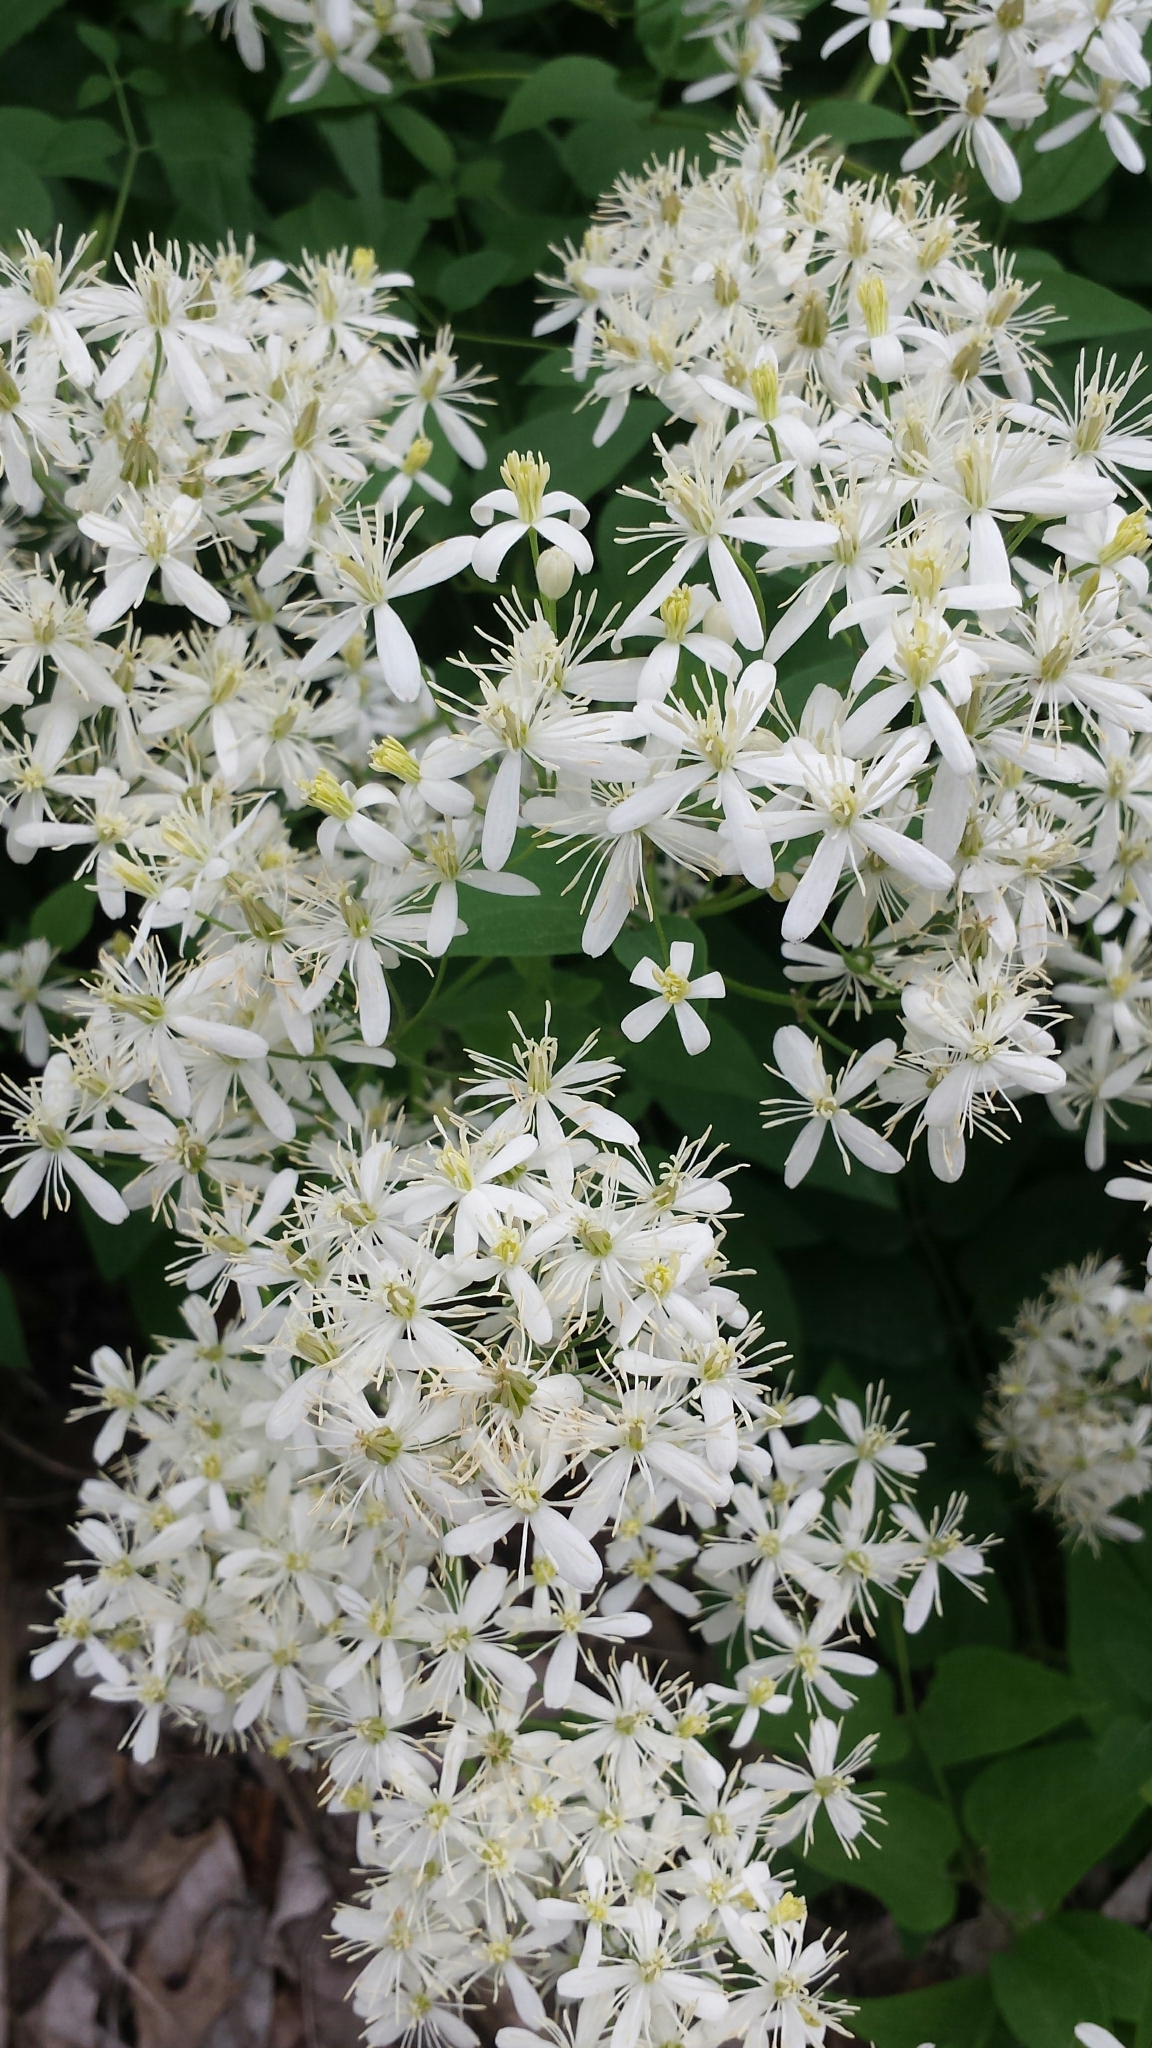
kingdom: Plantae
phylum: Tracheophyta
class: Magnoliopsida
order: Ranunculales
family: Ranunculaceae
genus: Clematis
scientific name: Clematis terniflora
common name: Sweet autumn clematis
